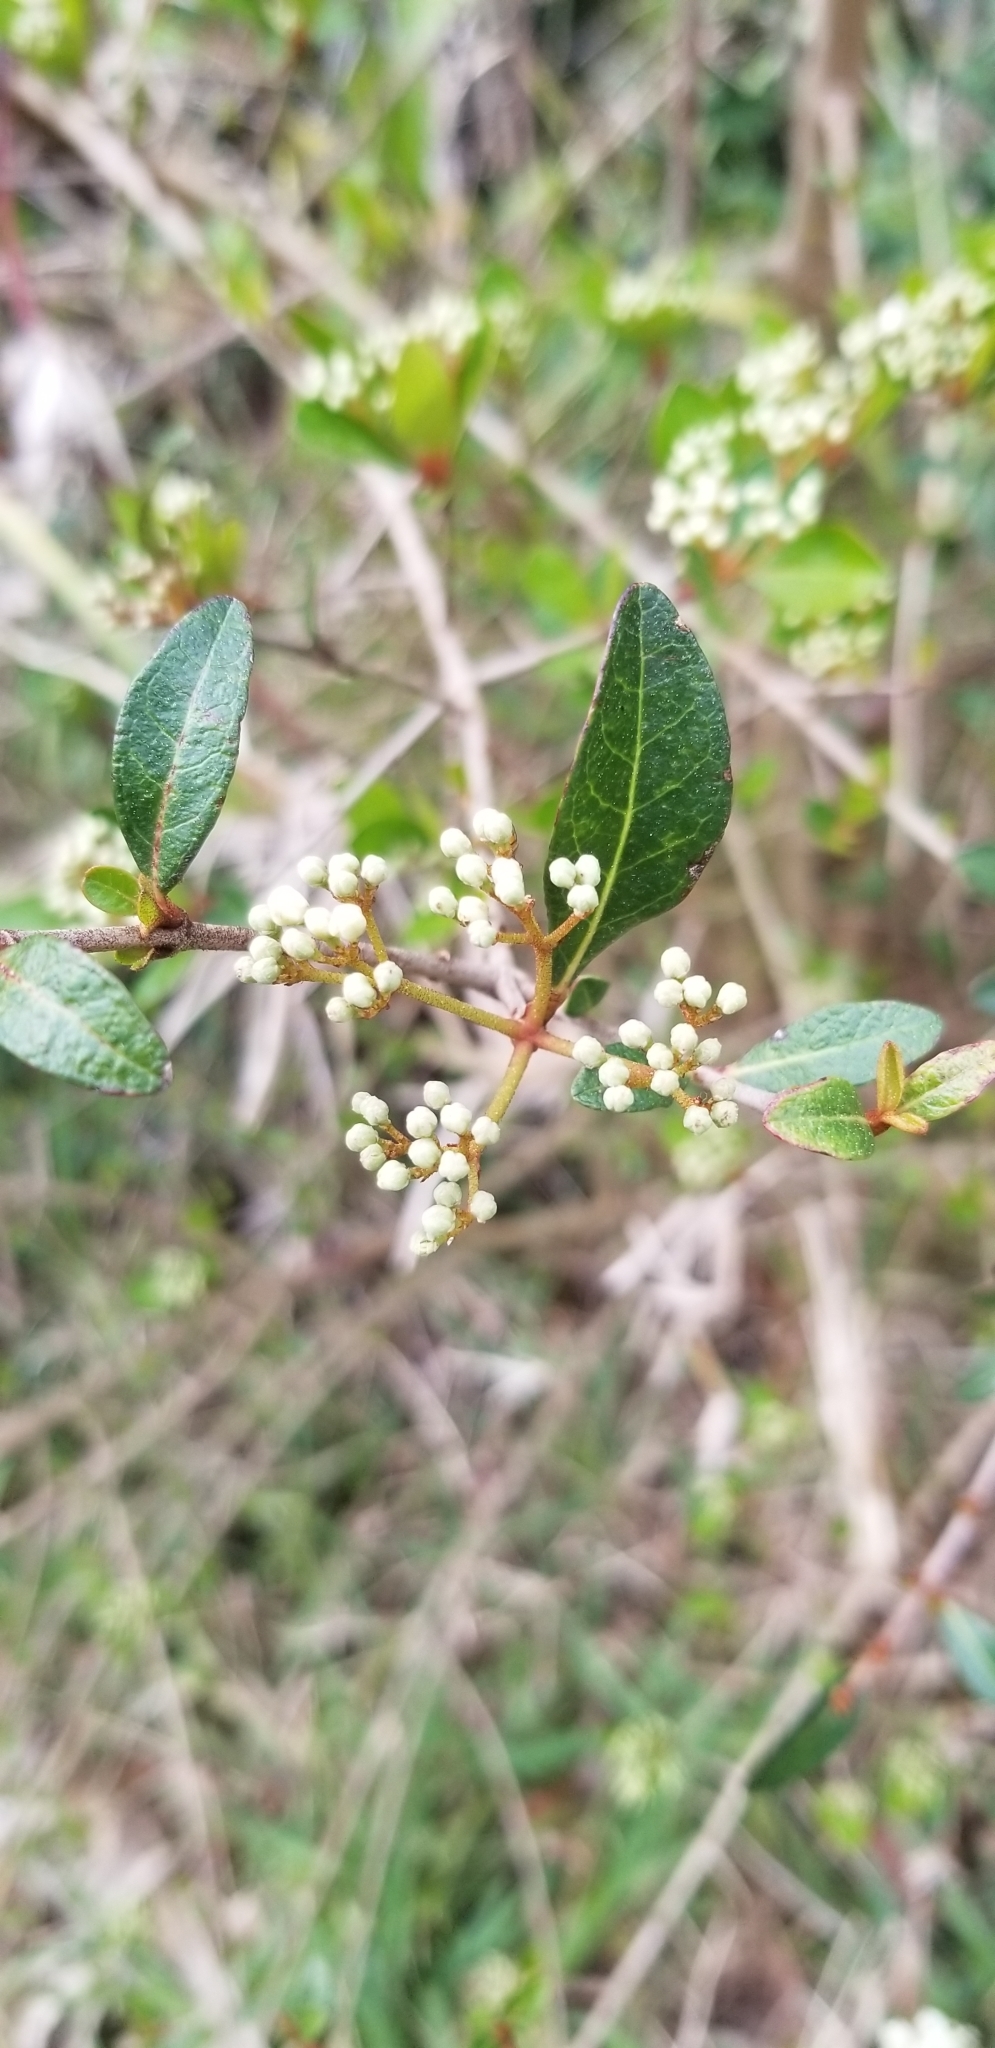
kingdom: Plantae
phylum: Tracheophyta
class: Magnoliopsida
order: Dipsacales
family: Viburnaceae
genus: Viburnum
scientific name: Viburnum obovatum
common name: Walter's viburnum
